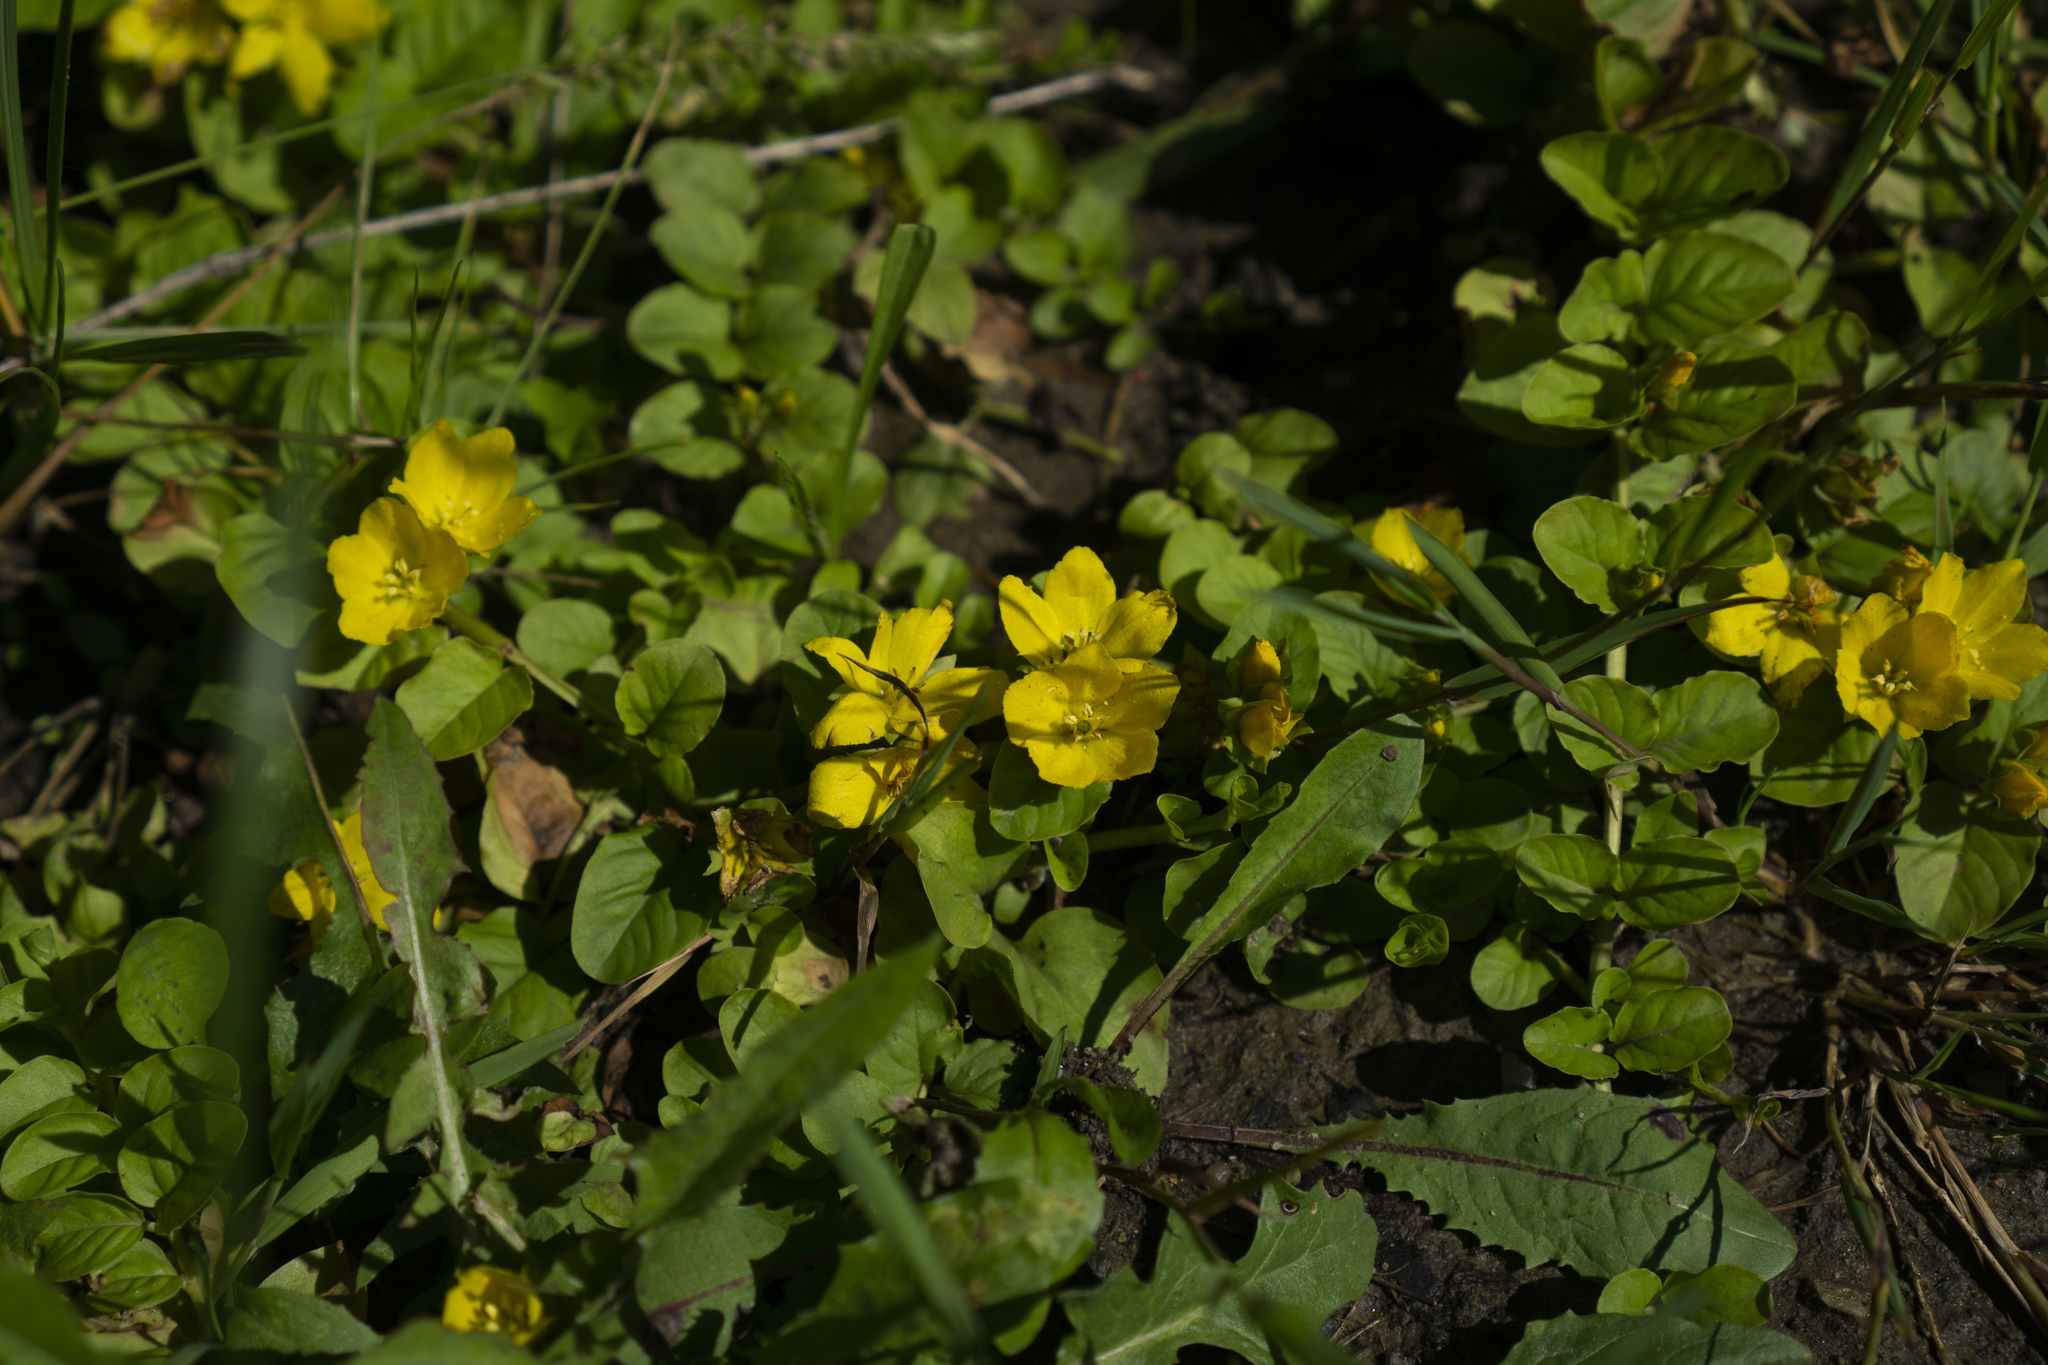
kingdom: Plantae
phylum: Tracheophyta
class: Magnoliopsida
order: Ericales
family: Primulaceae
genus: Lysimachia
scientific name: Lysimachia nummularia
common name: Moneywort
